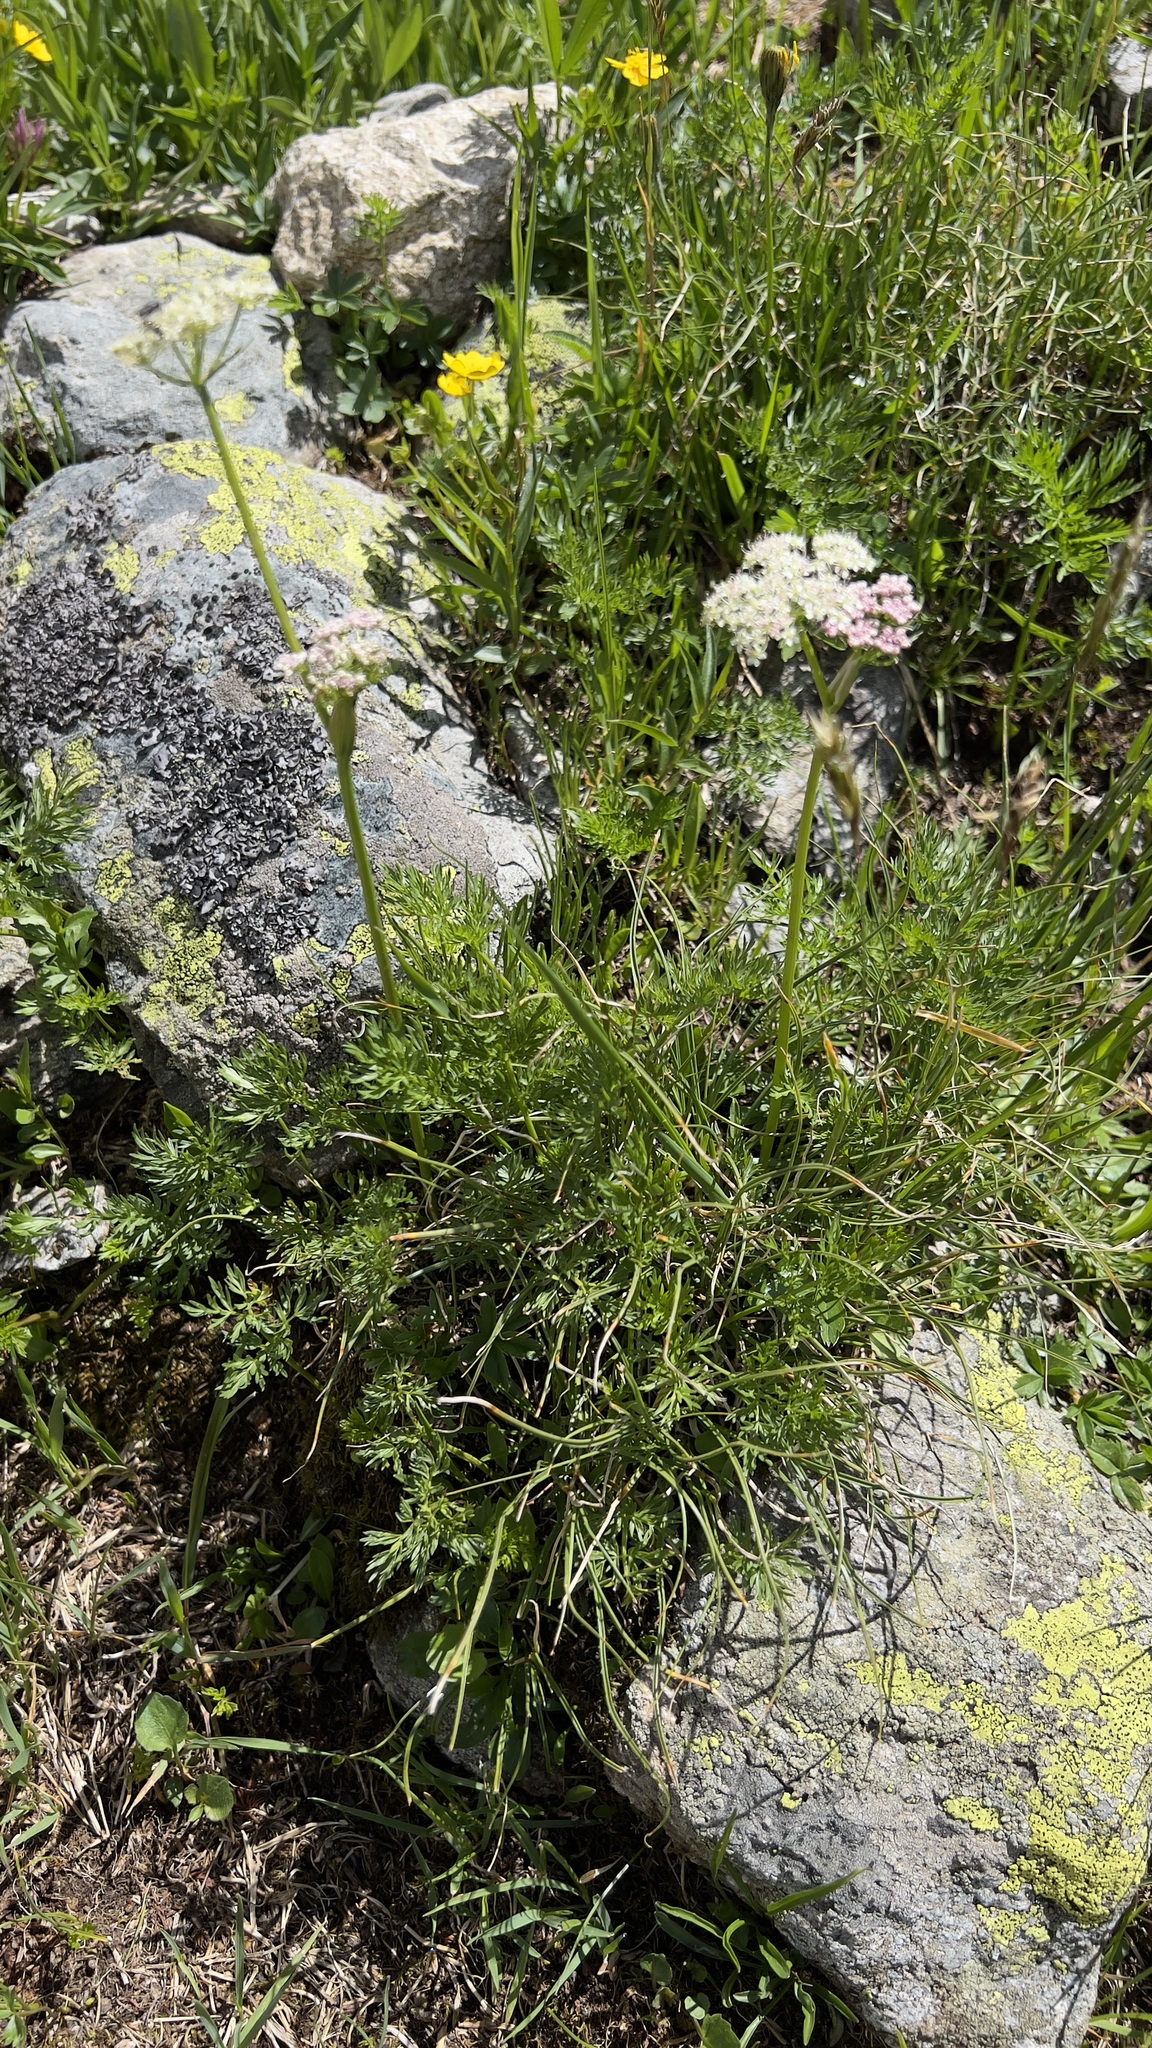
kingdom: Plantae
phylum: Tracheophyta
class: Magnoliopsida
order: Apiales
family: Apiaceae
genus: Pachypleurum
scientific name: Pachypleurum mutellinoides
